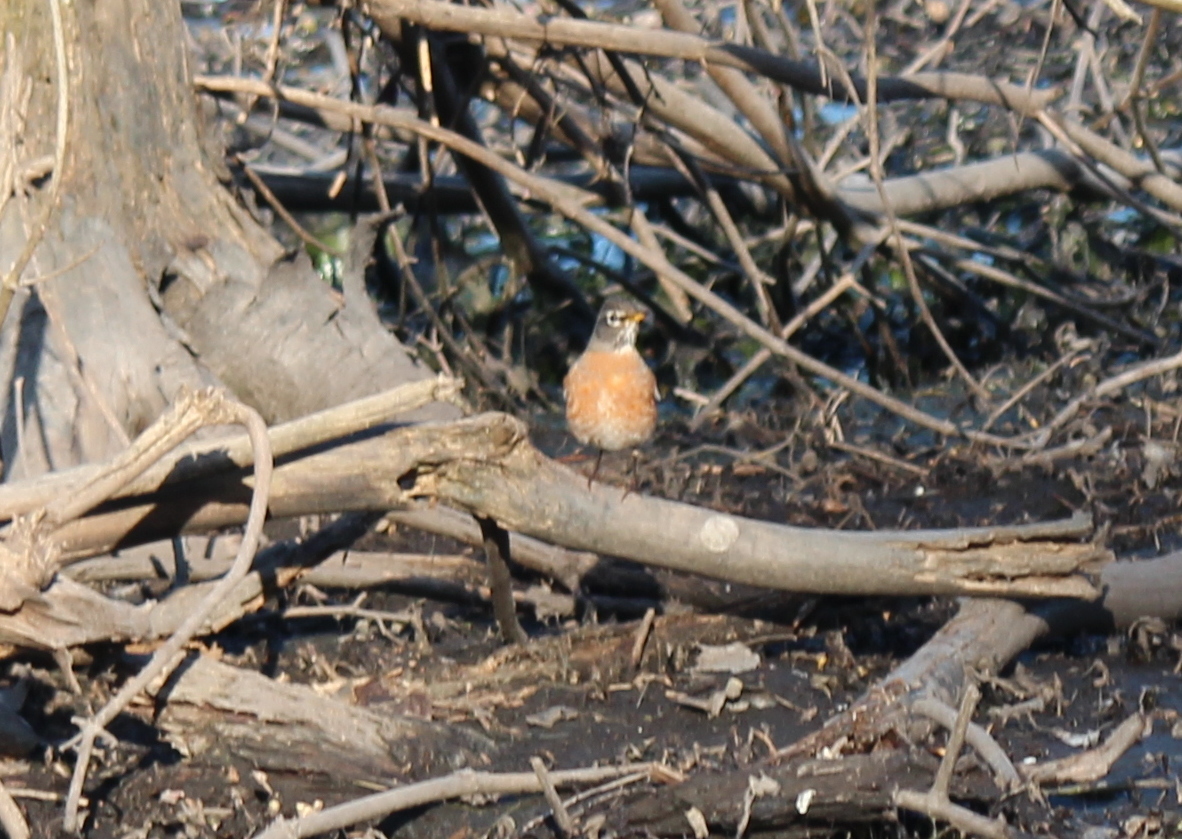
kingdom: Animalia
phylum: Chordata
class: Aves
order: Passeriformes
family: Turdidae
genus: Turdus
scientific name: Turdus migratorius
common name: American robin
